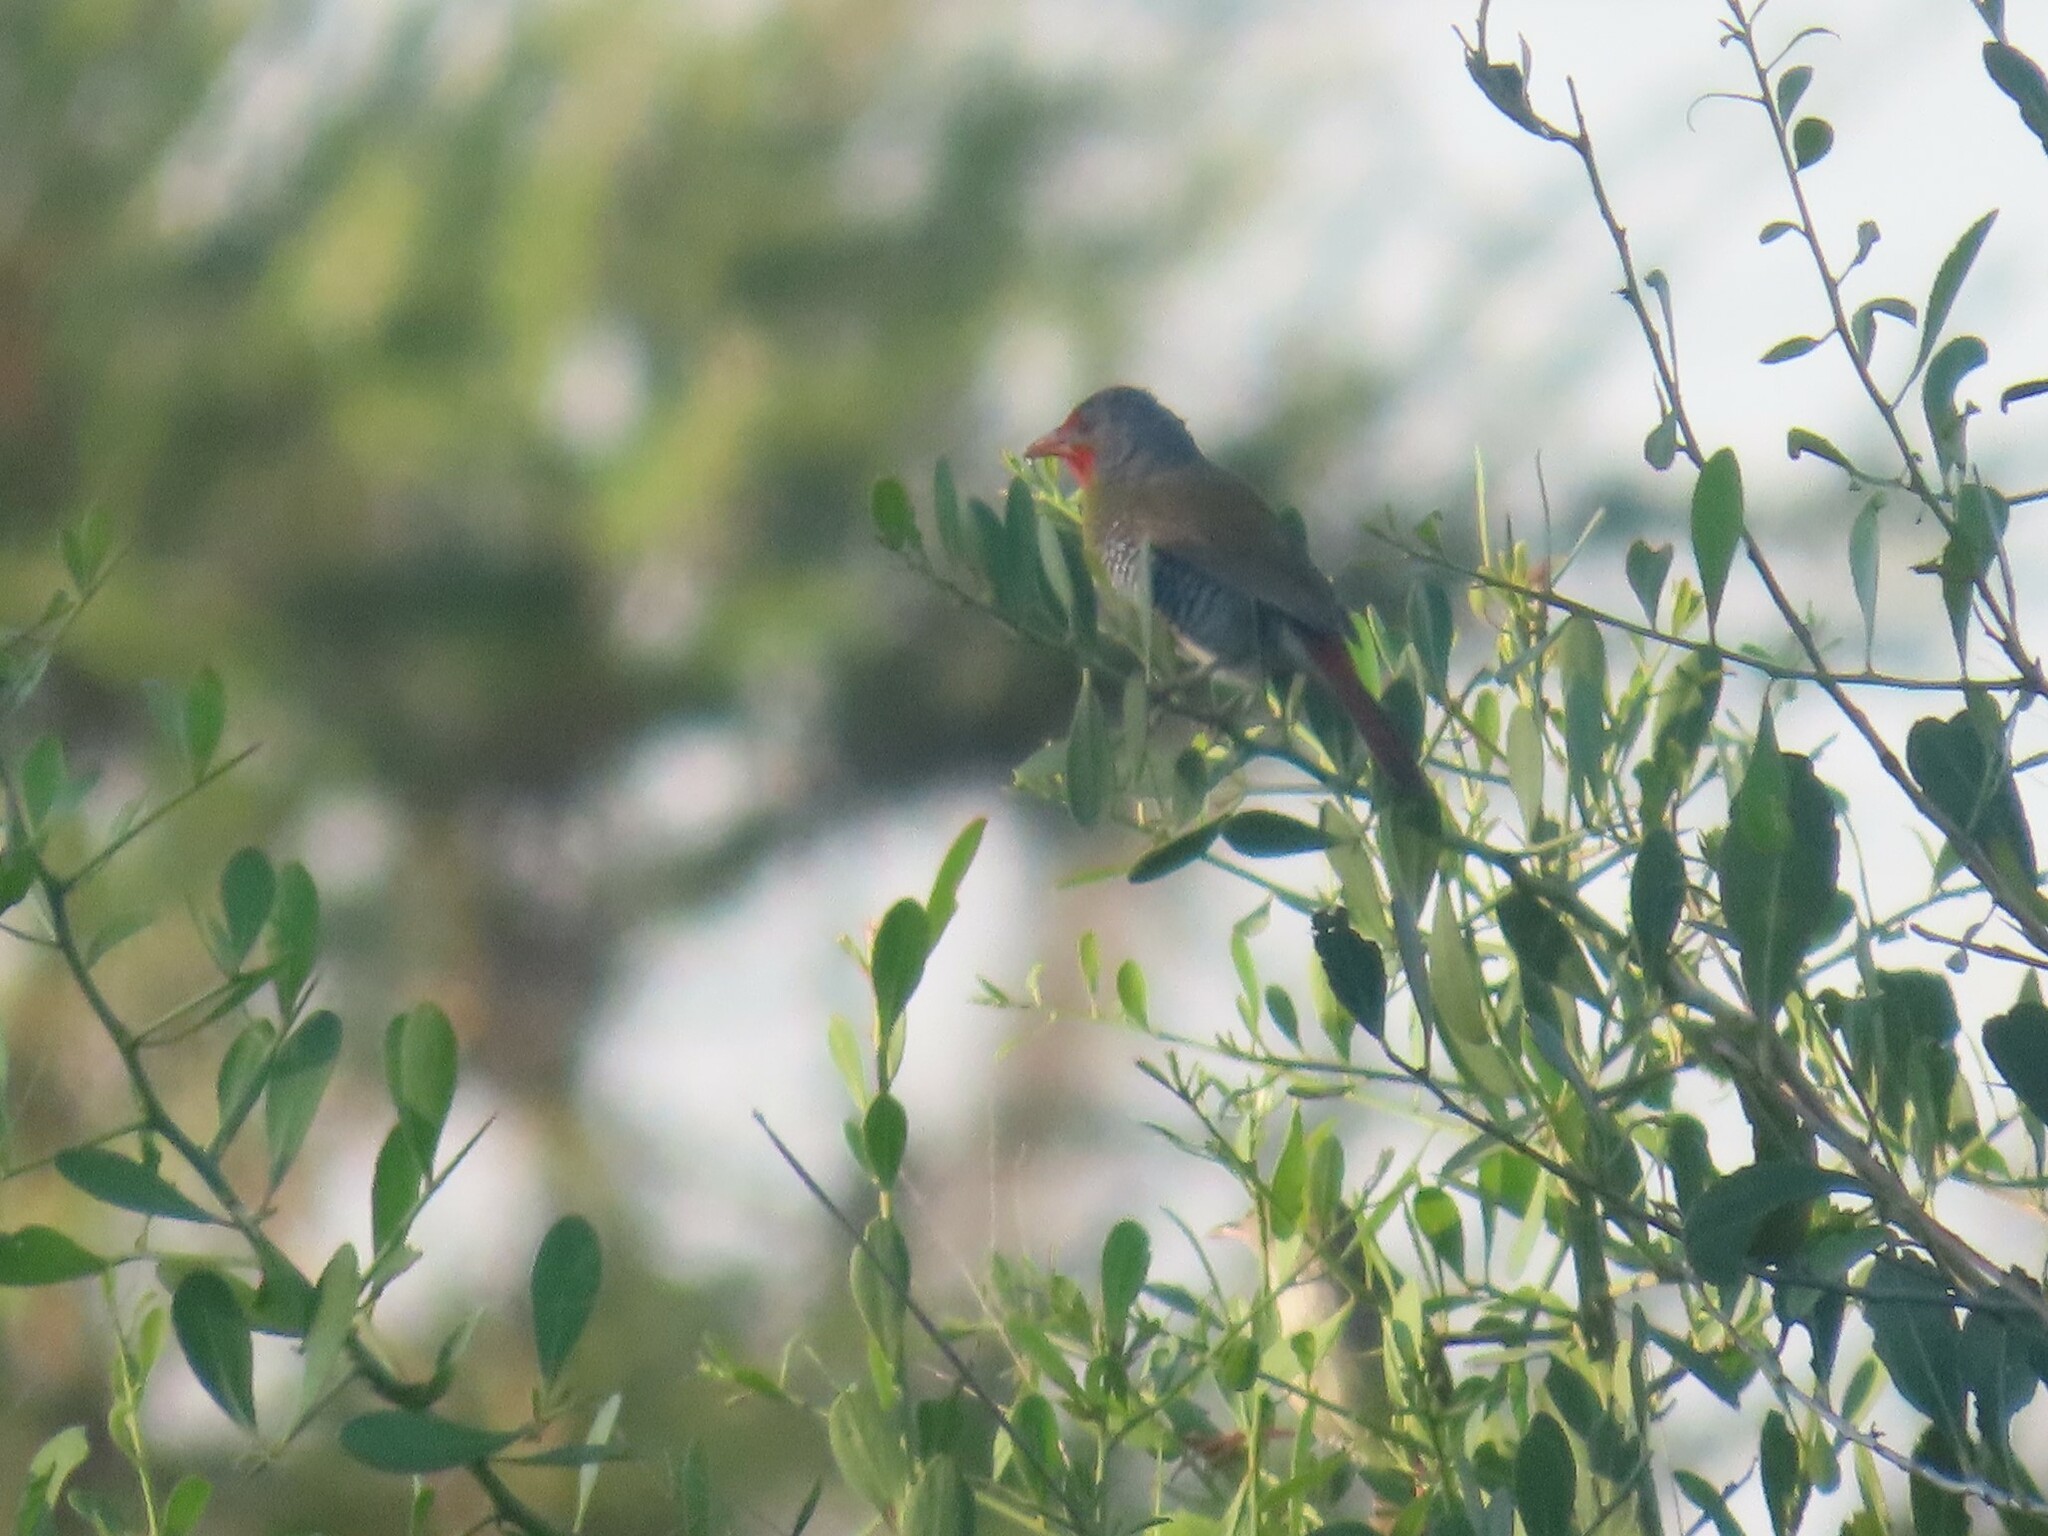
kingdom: Animalia
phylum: Chordata
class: Aves
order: Passeriformes
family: Estrildidae
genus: Pytilia
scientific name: Pytilia melba
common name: Green-winged pytilia
